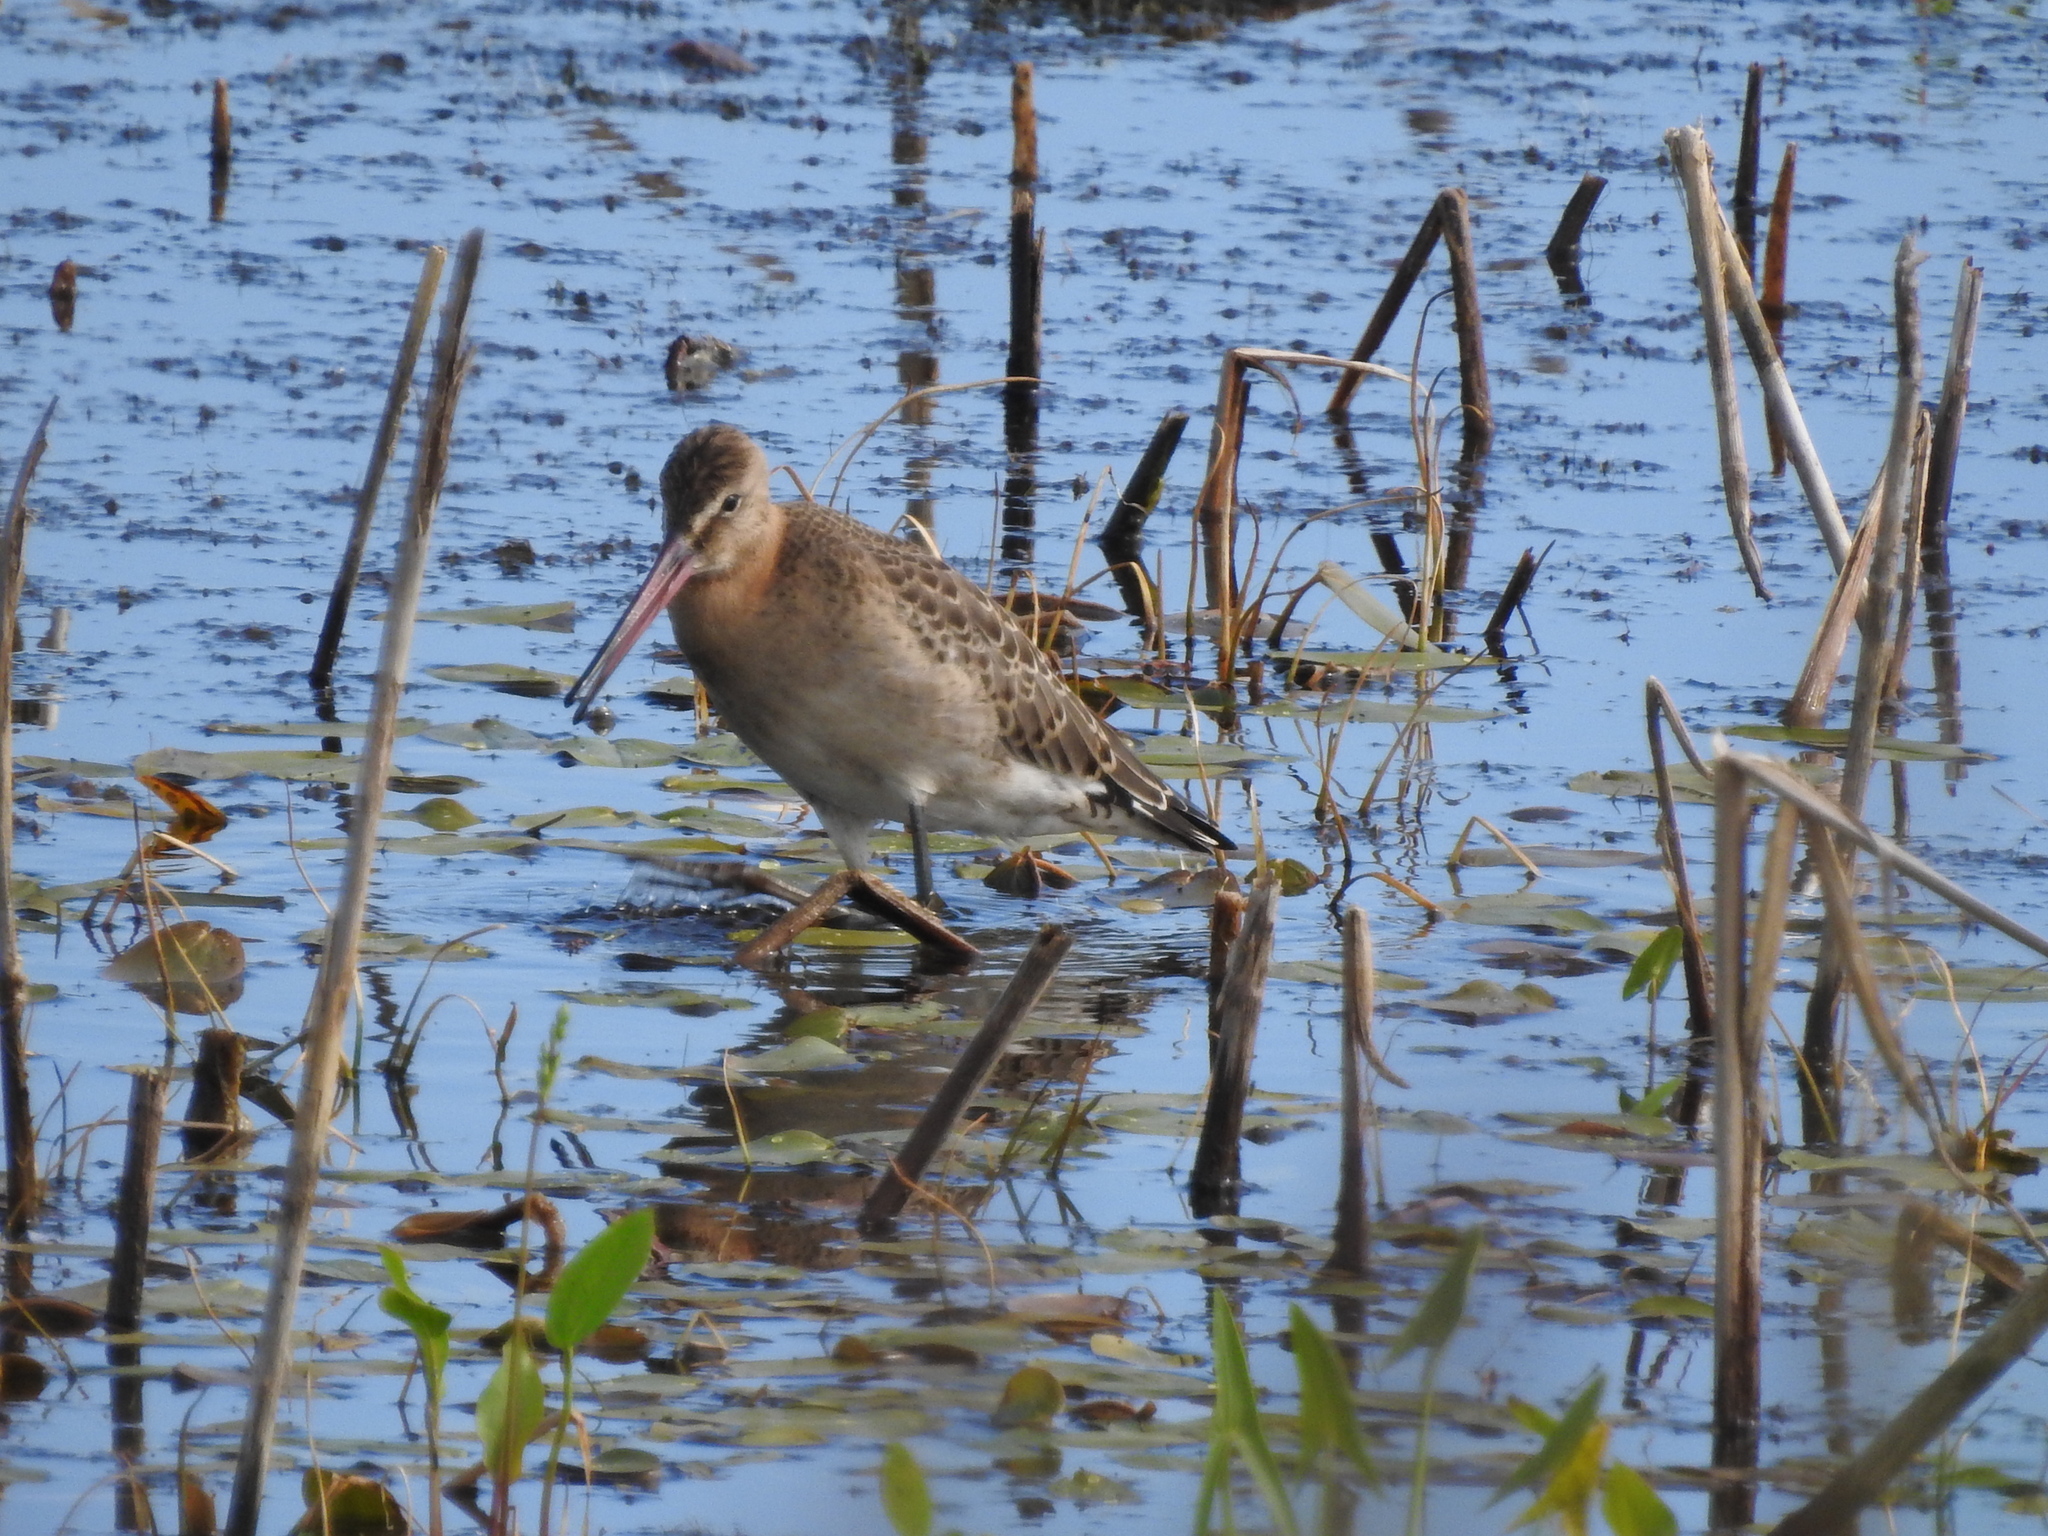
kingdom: Animalia
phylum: Chordata
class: Aves
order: Charadriiformes
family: Scolopacidae
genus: Limosa
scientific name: Limosa limosa
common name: Black-tailed godwit
